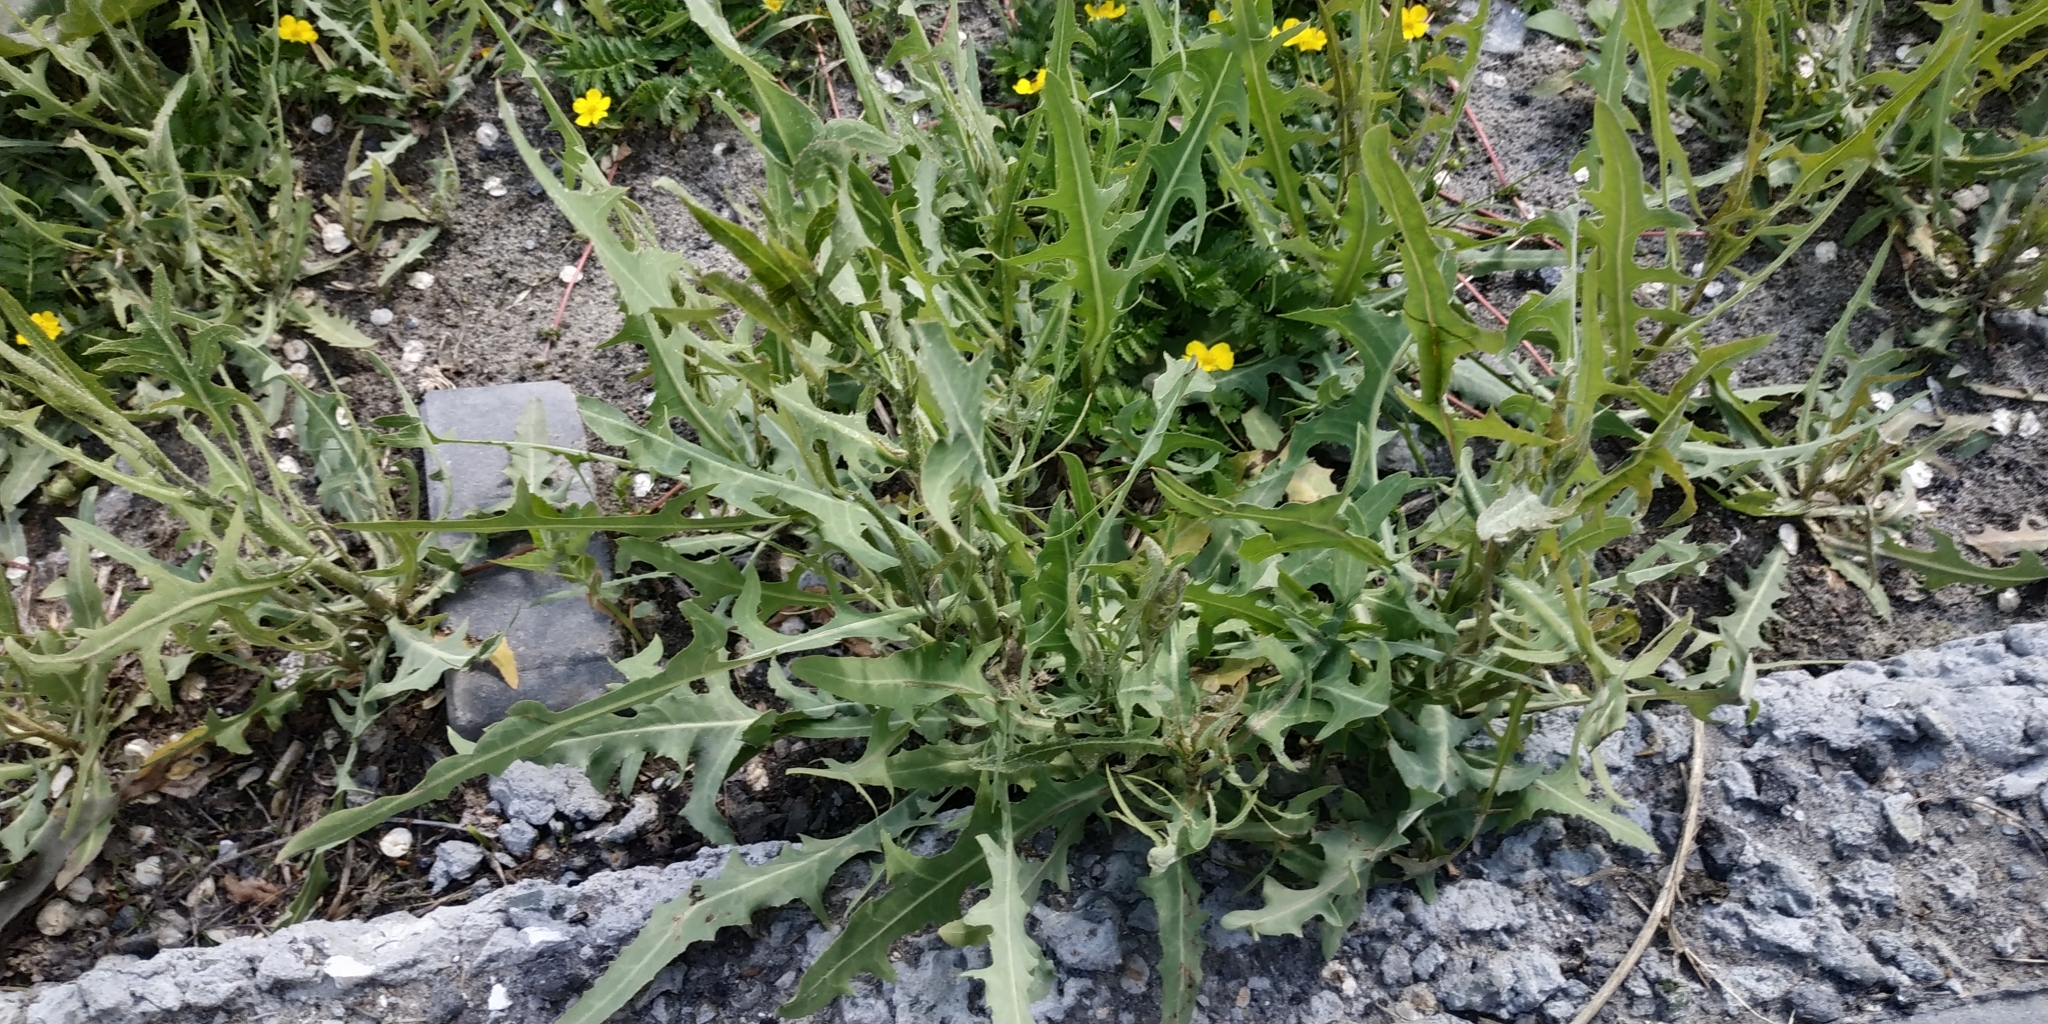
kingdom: Plantae
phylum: Tracheophyta
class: Magnoliopsida
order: Asterales
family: Asteraceae
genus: Lactuca
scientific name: Lactuca tatarica
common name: Blue lettuce
